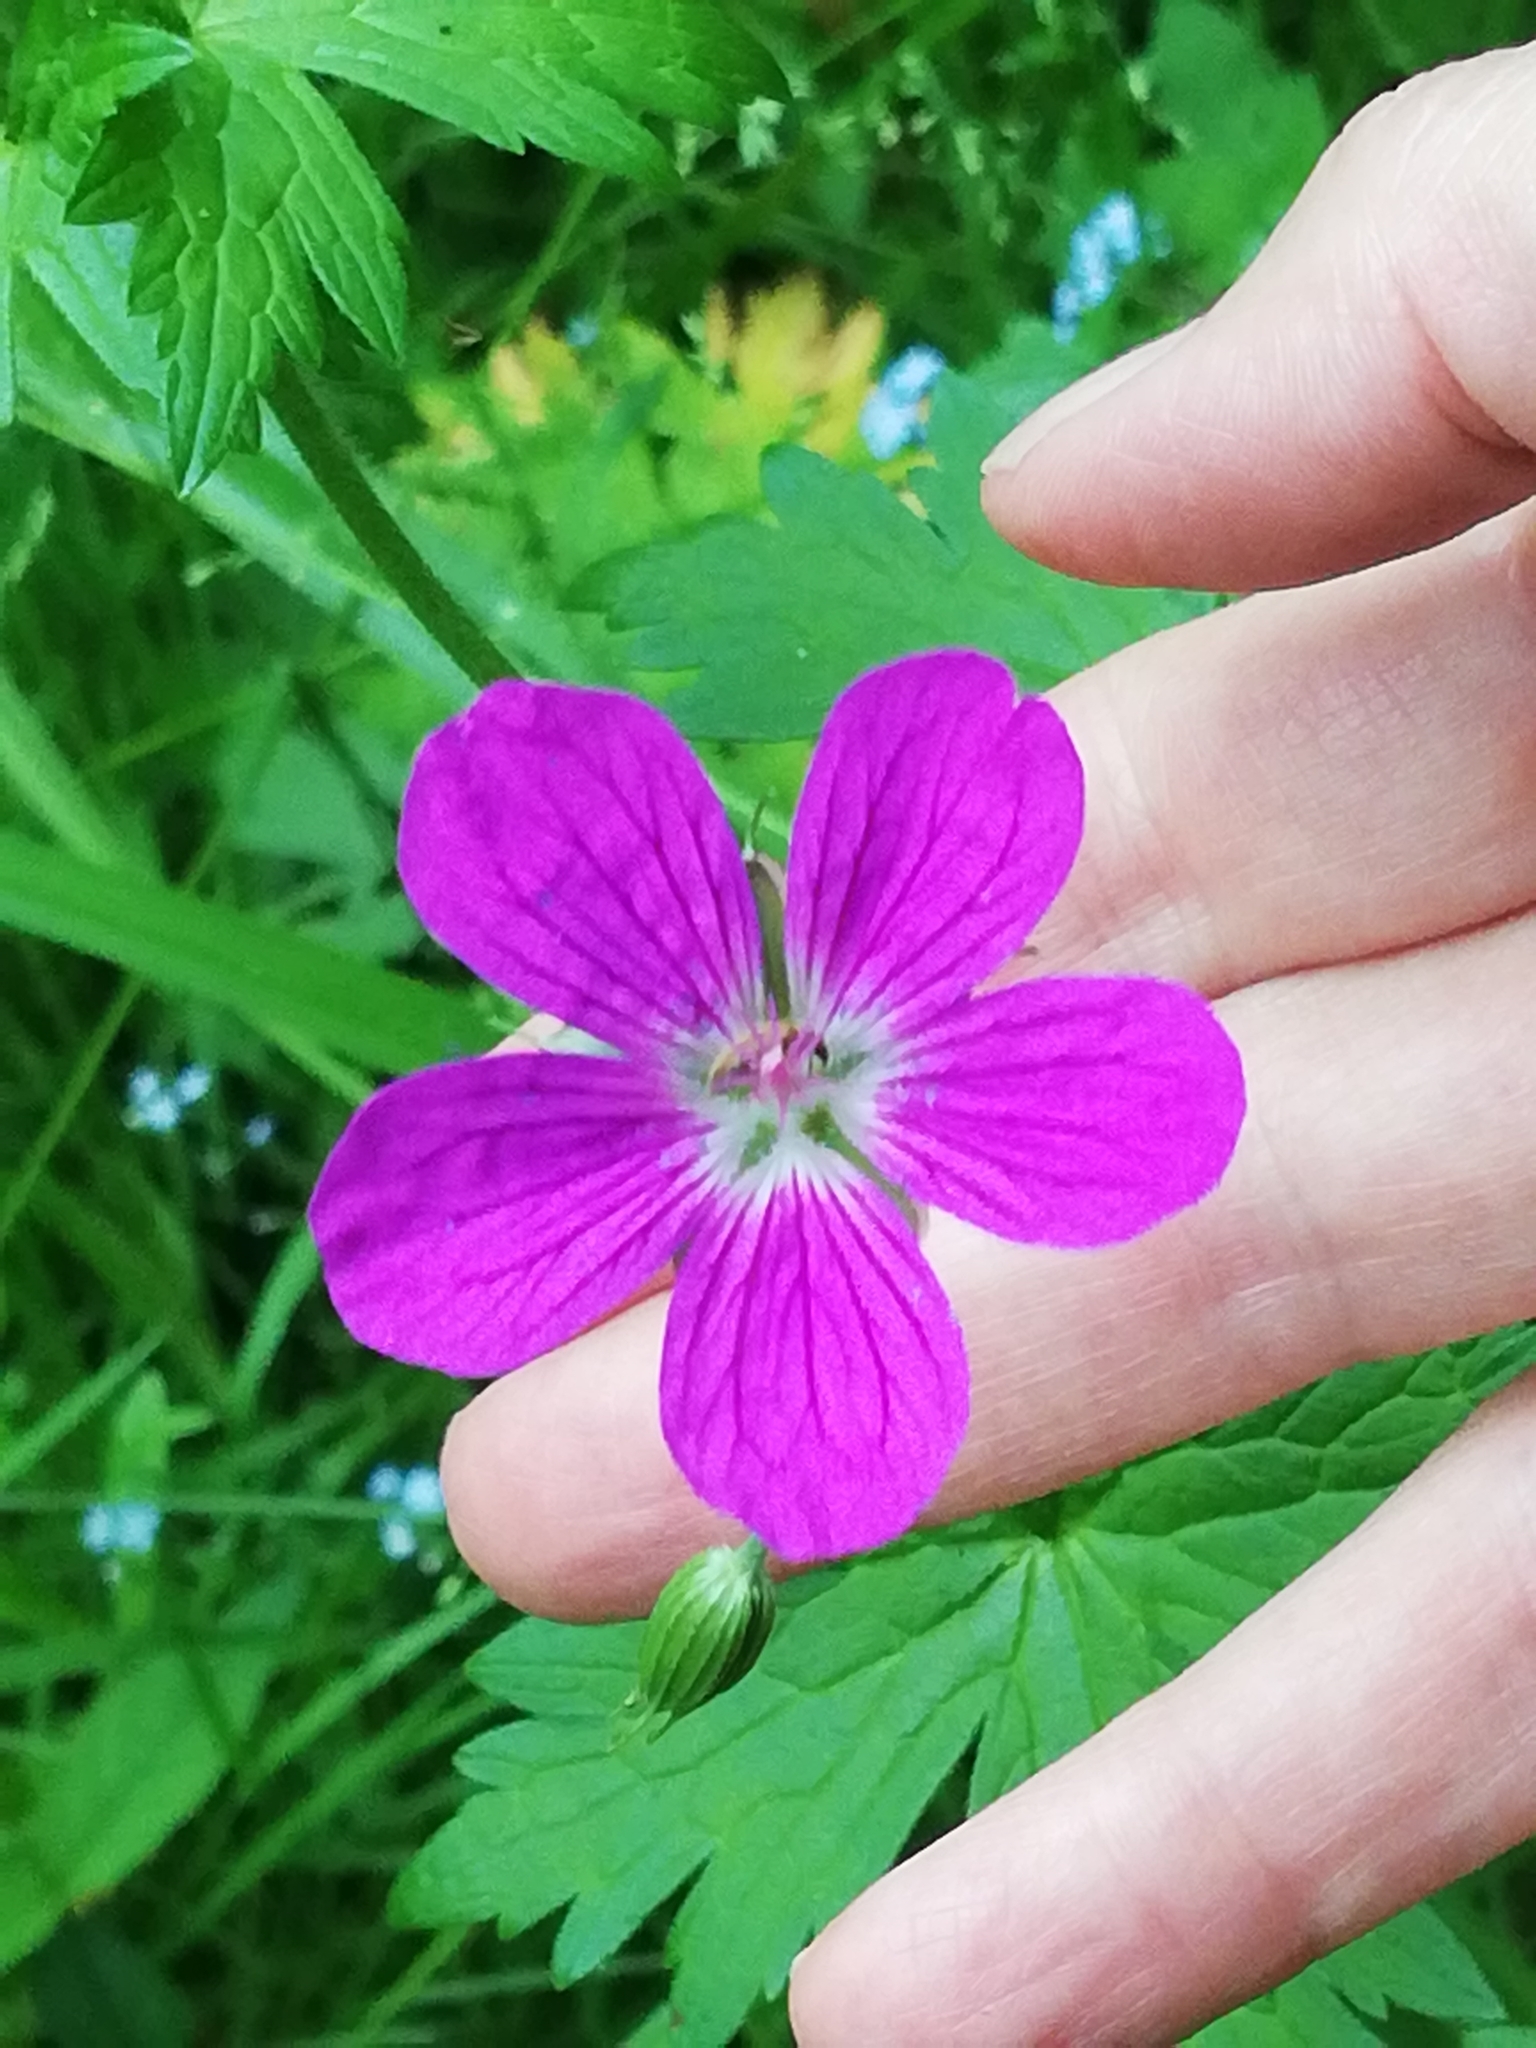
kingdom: Plantae
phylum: Tracheophyta
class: Magnoliopsida
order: Geraniales
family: Geraniaceae
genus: Geranium
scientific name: Geranium palustre
